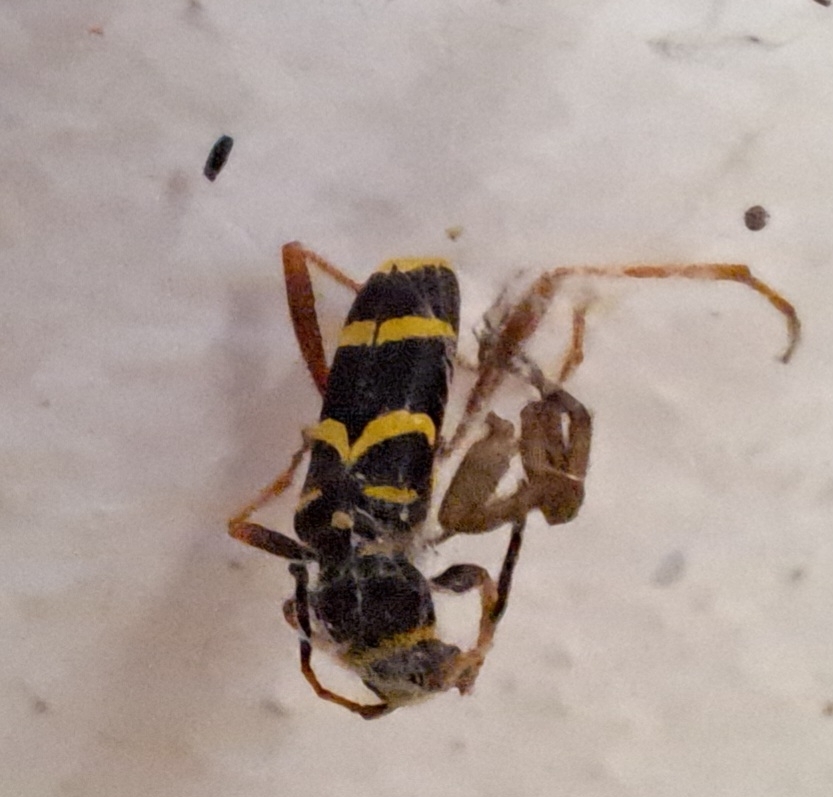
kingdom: Animalia
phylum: Arthropoda
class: Insecta
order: Coleoptera
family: Cerambycidae
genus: Clytus
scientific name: Clytus arietis
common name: Wasp beetle
